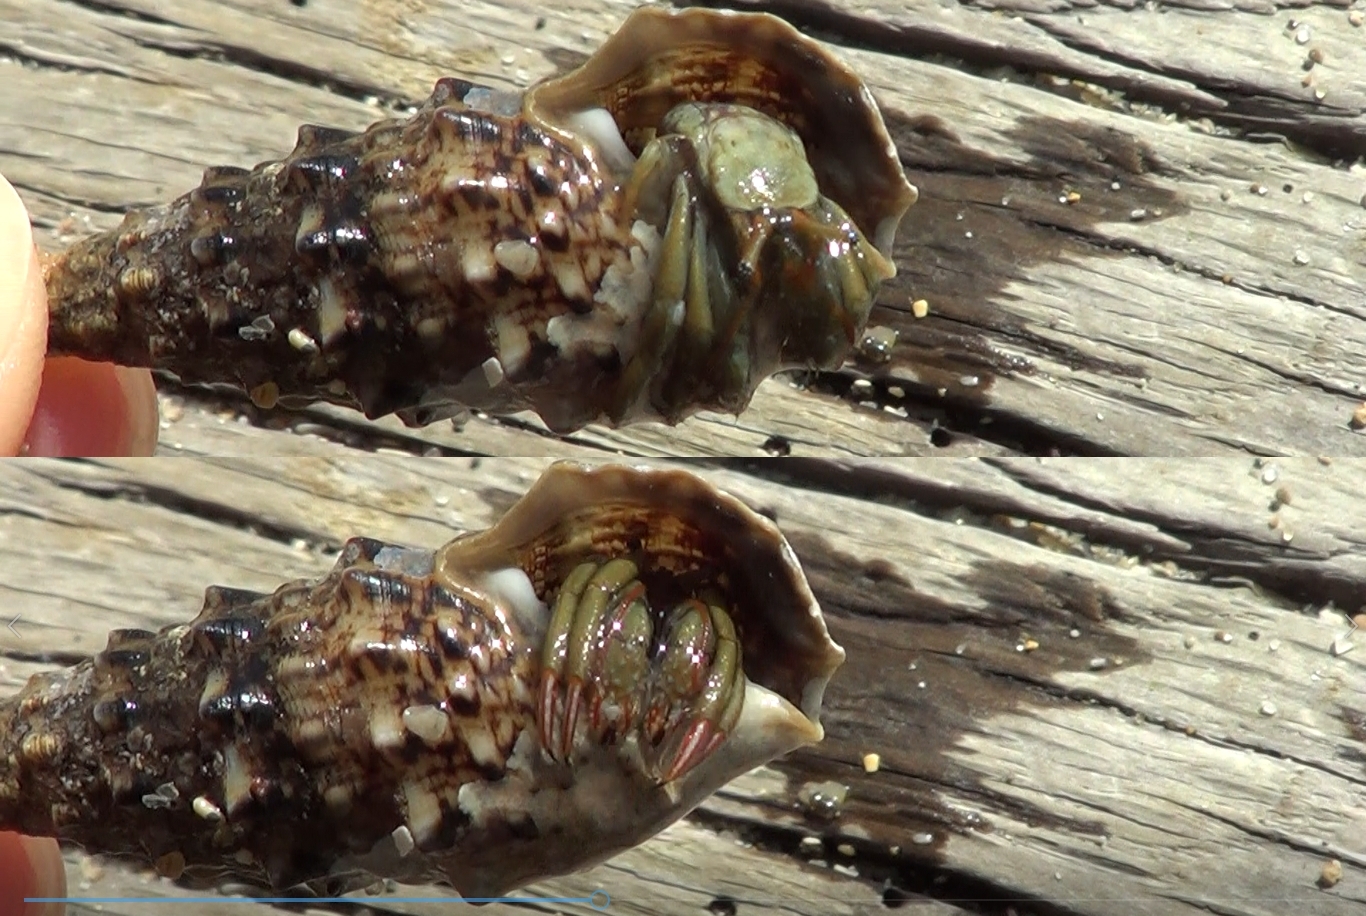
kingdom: Animalia
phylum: Arthropoda
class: Malacostraca
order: Decapoda
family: Diogenidae
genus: Clibanarius
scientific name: Clibanarius erythropus
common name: Hermit crab
